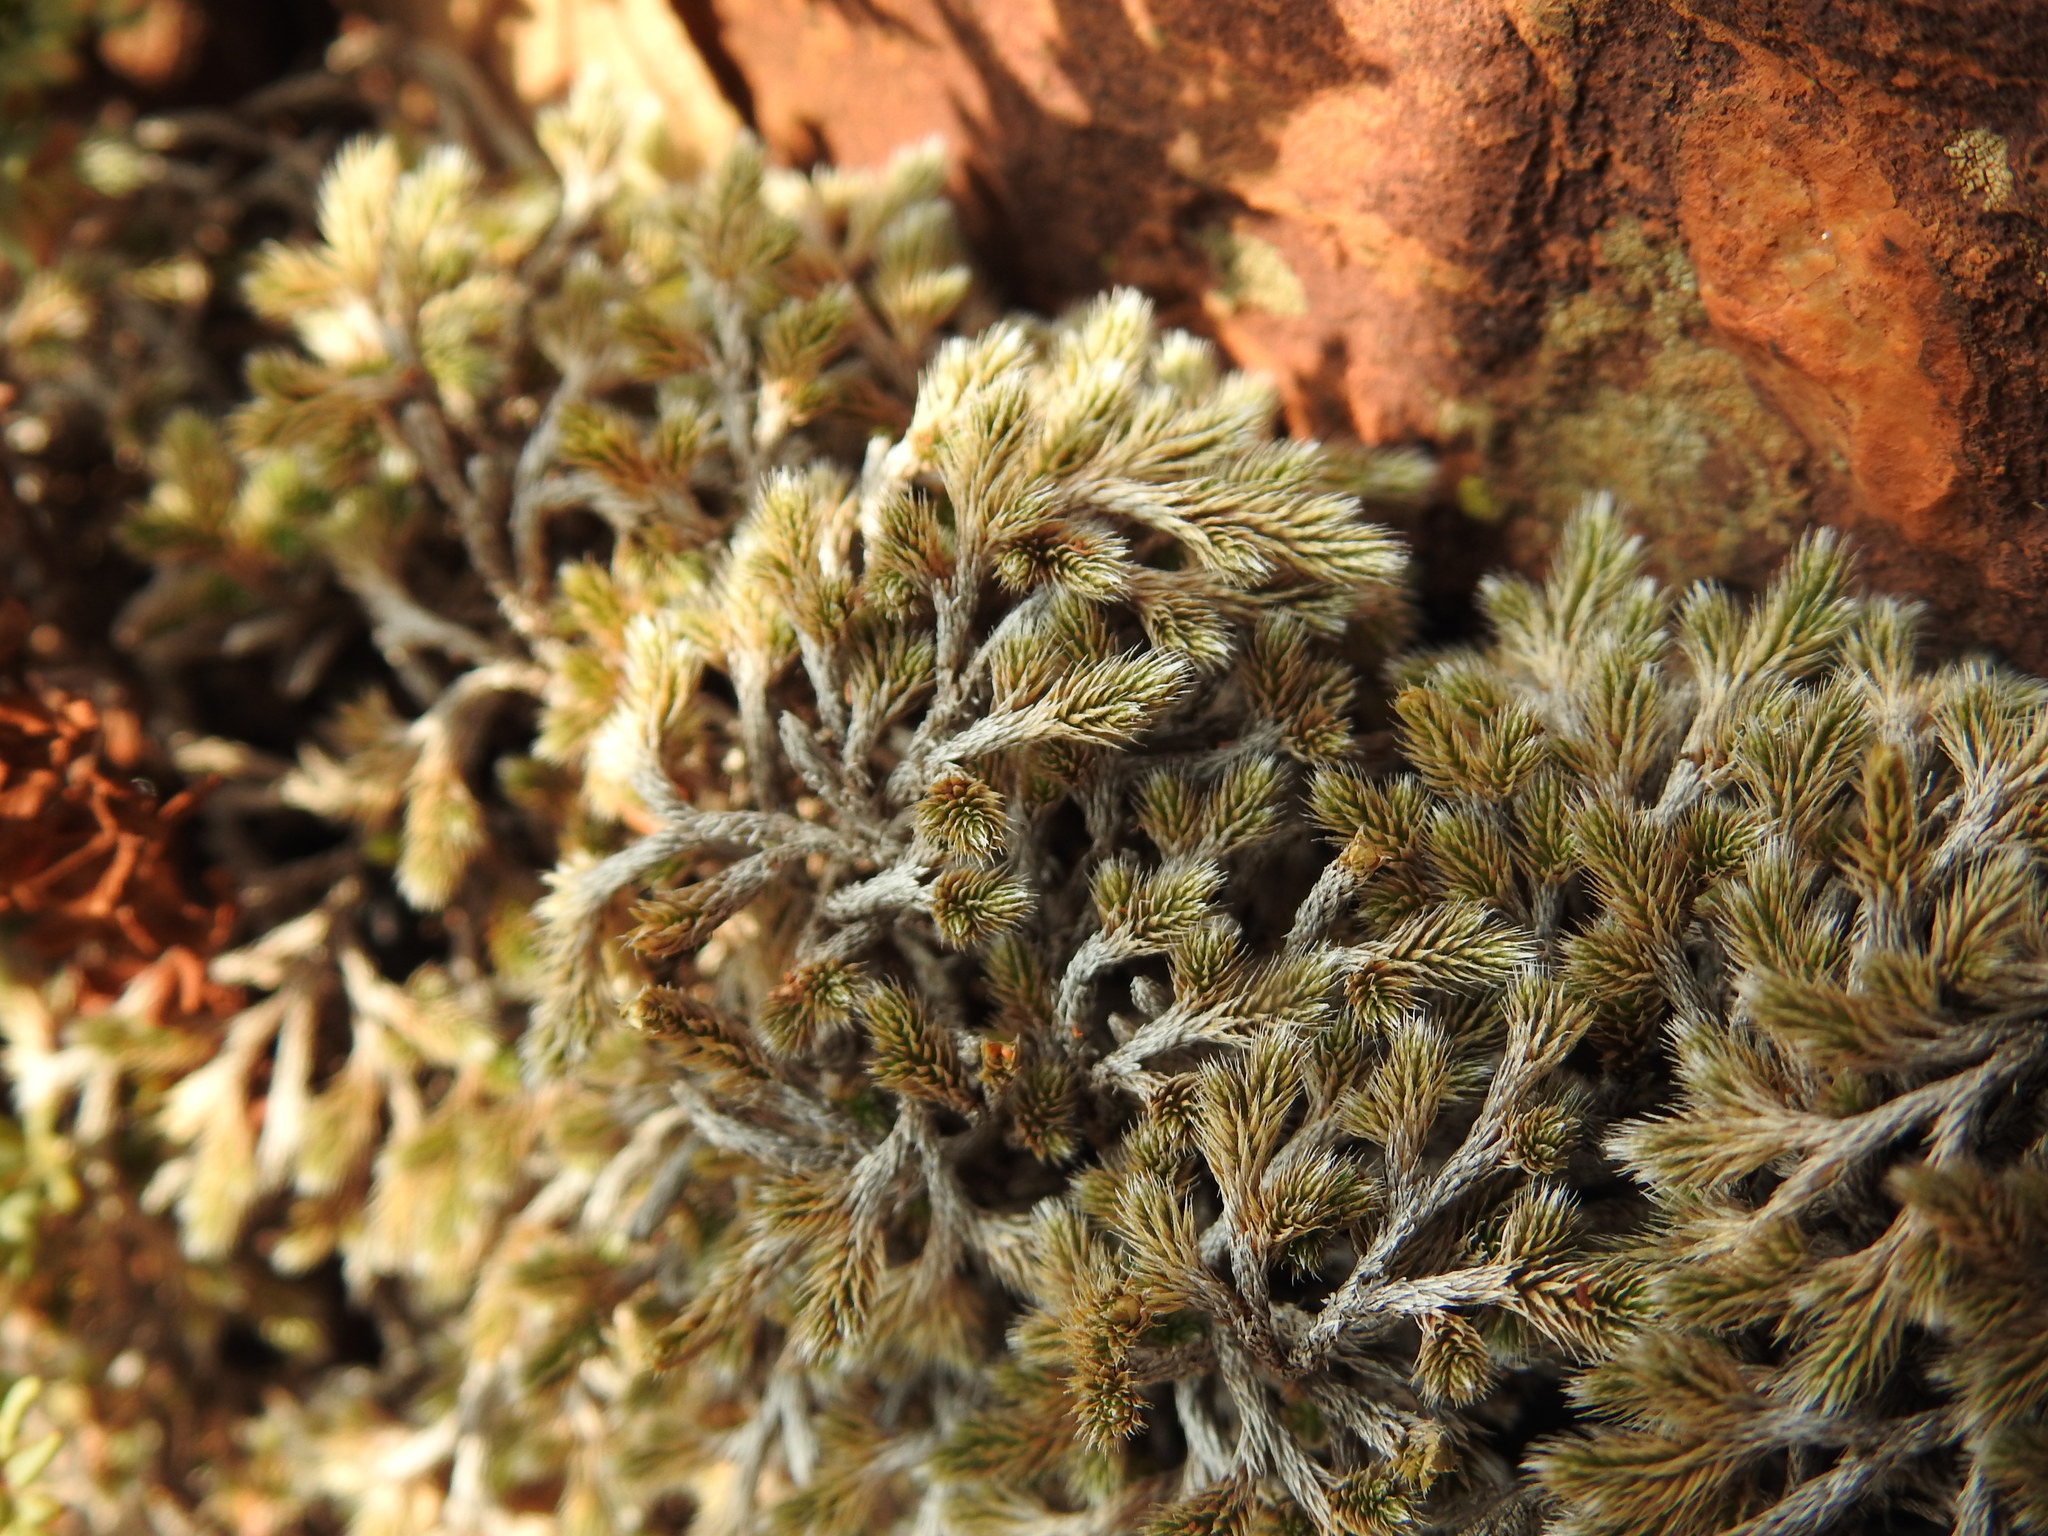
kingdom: Plantae
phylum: Tracheophyta
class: Lycopodiopsida
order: Selaginellales
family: Selaginellaceae
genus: Selaginella
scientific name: Selaginella dregei
